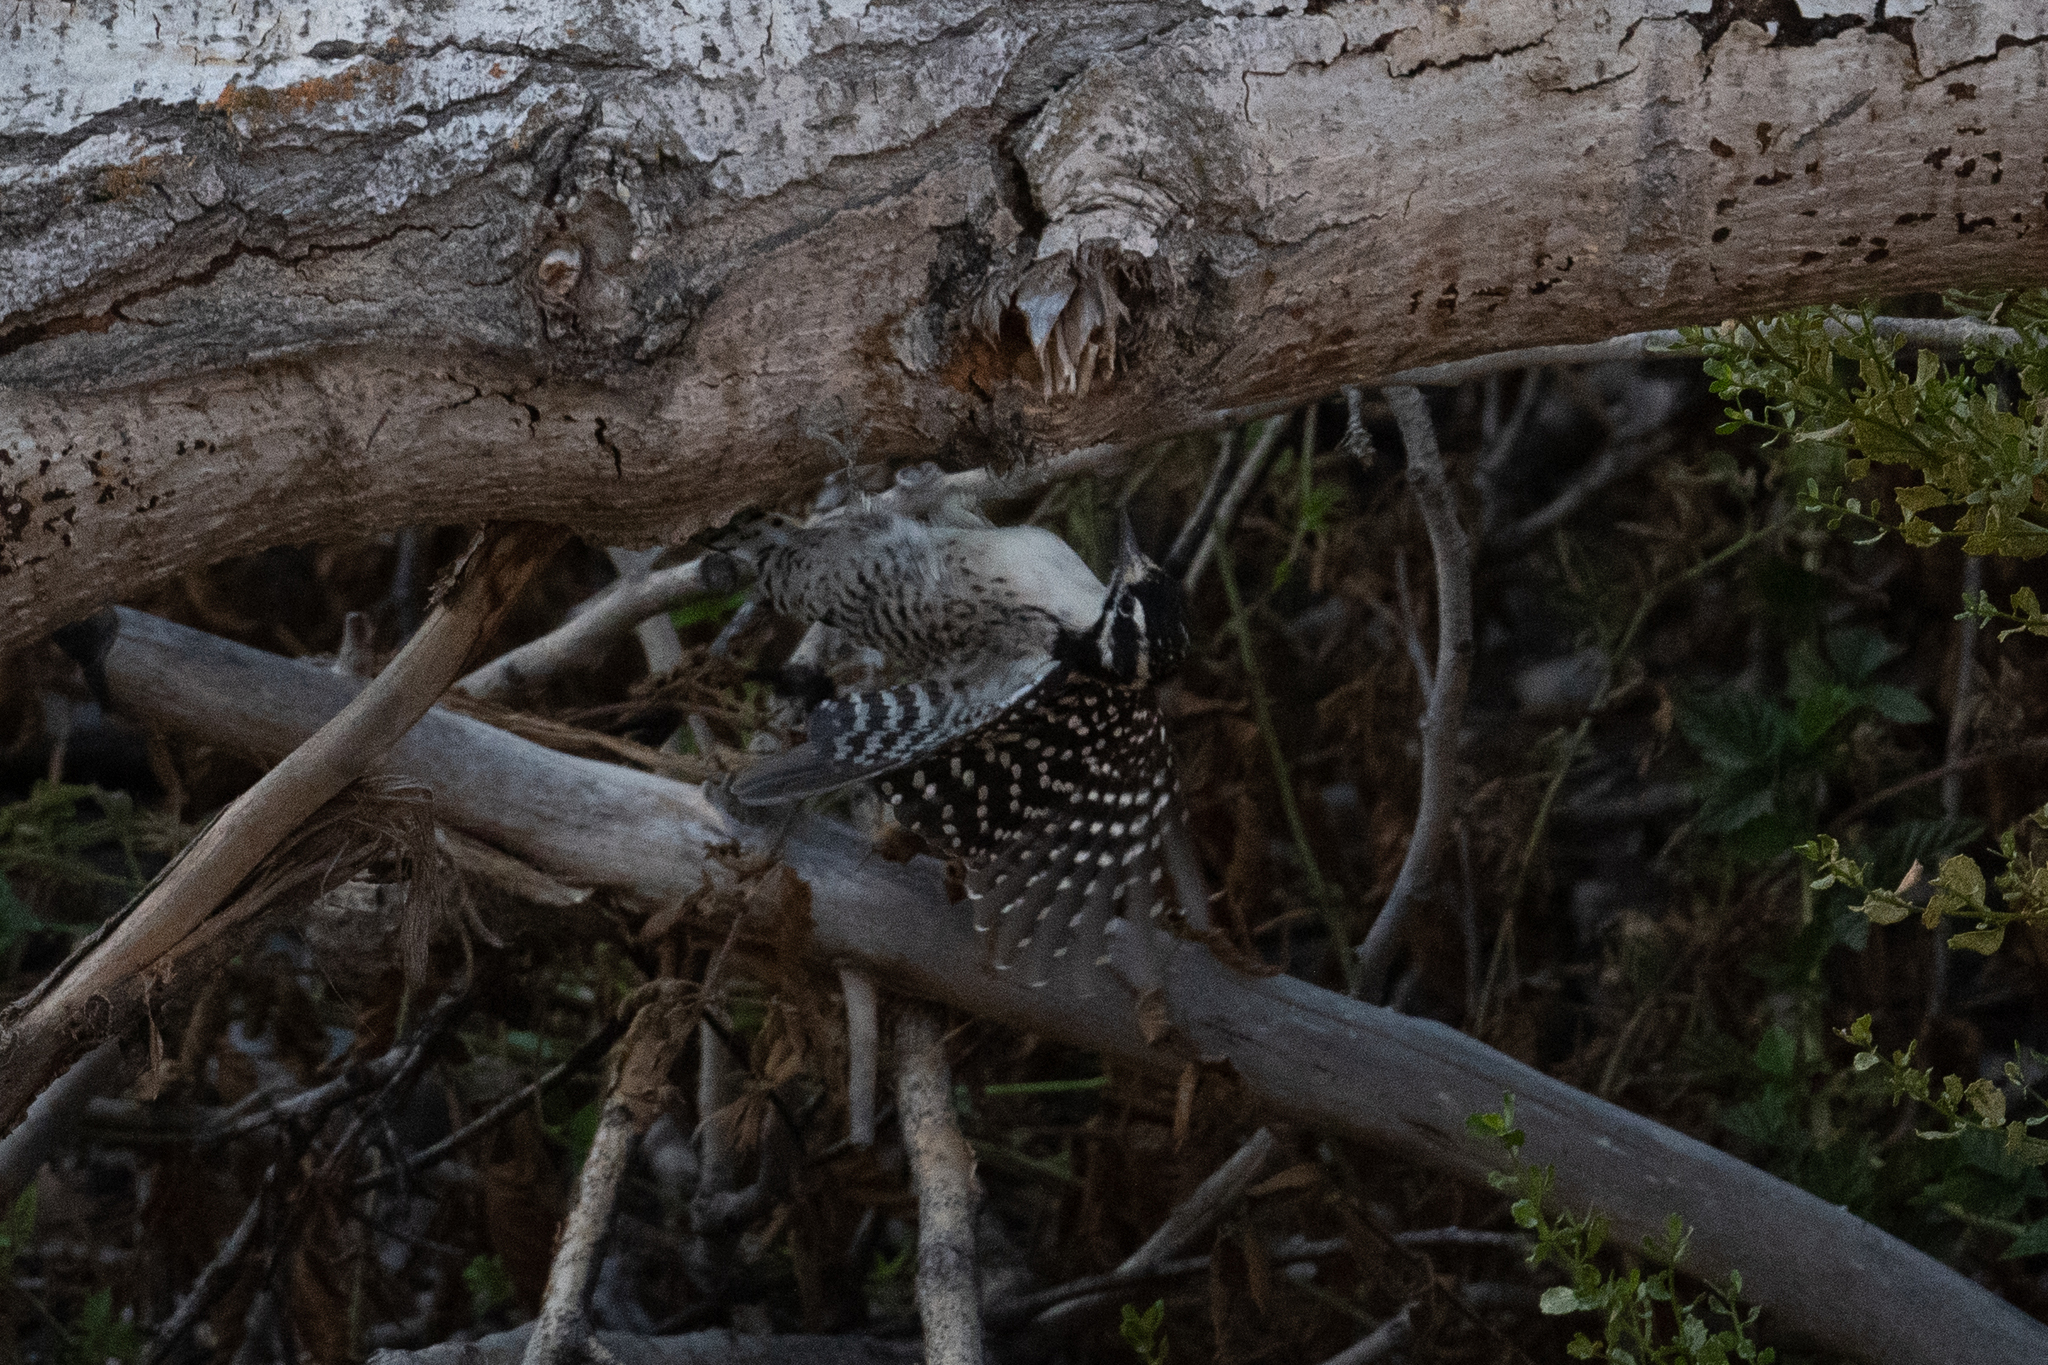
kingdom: Animalia
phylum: Chordata
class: Aves
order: Piciformes
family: Picidae
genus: Dryobates
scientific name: Dryobates nuttallii
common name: Nuttall's woodpecker
